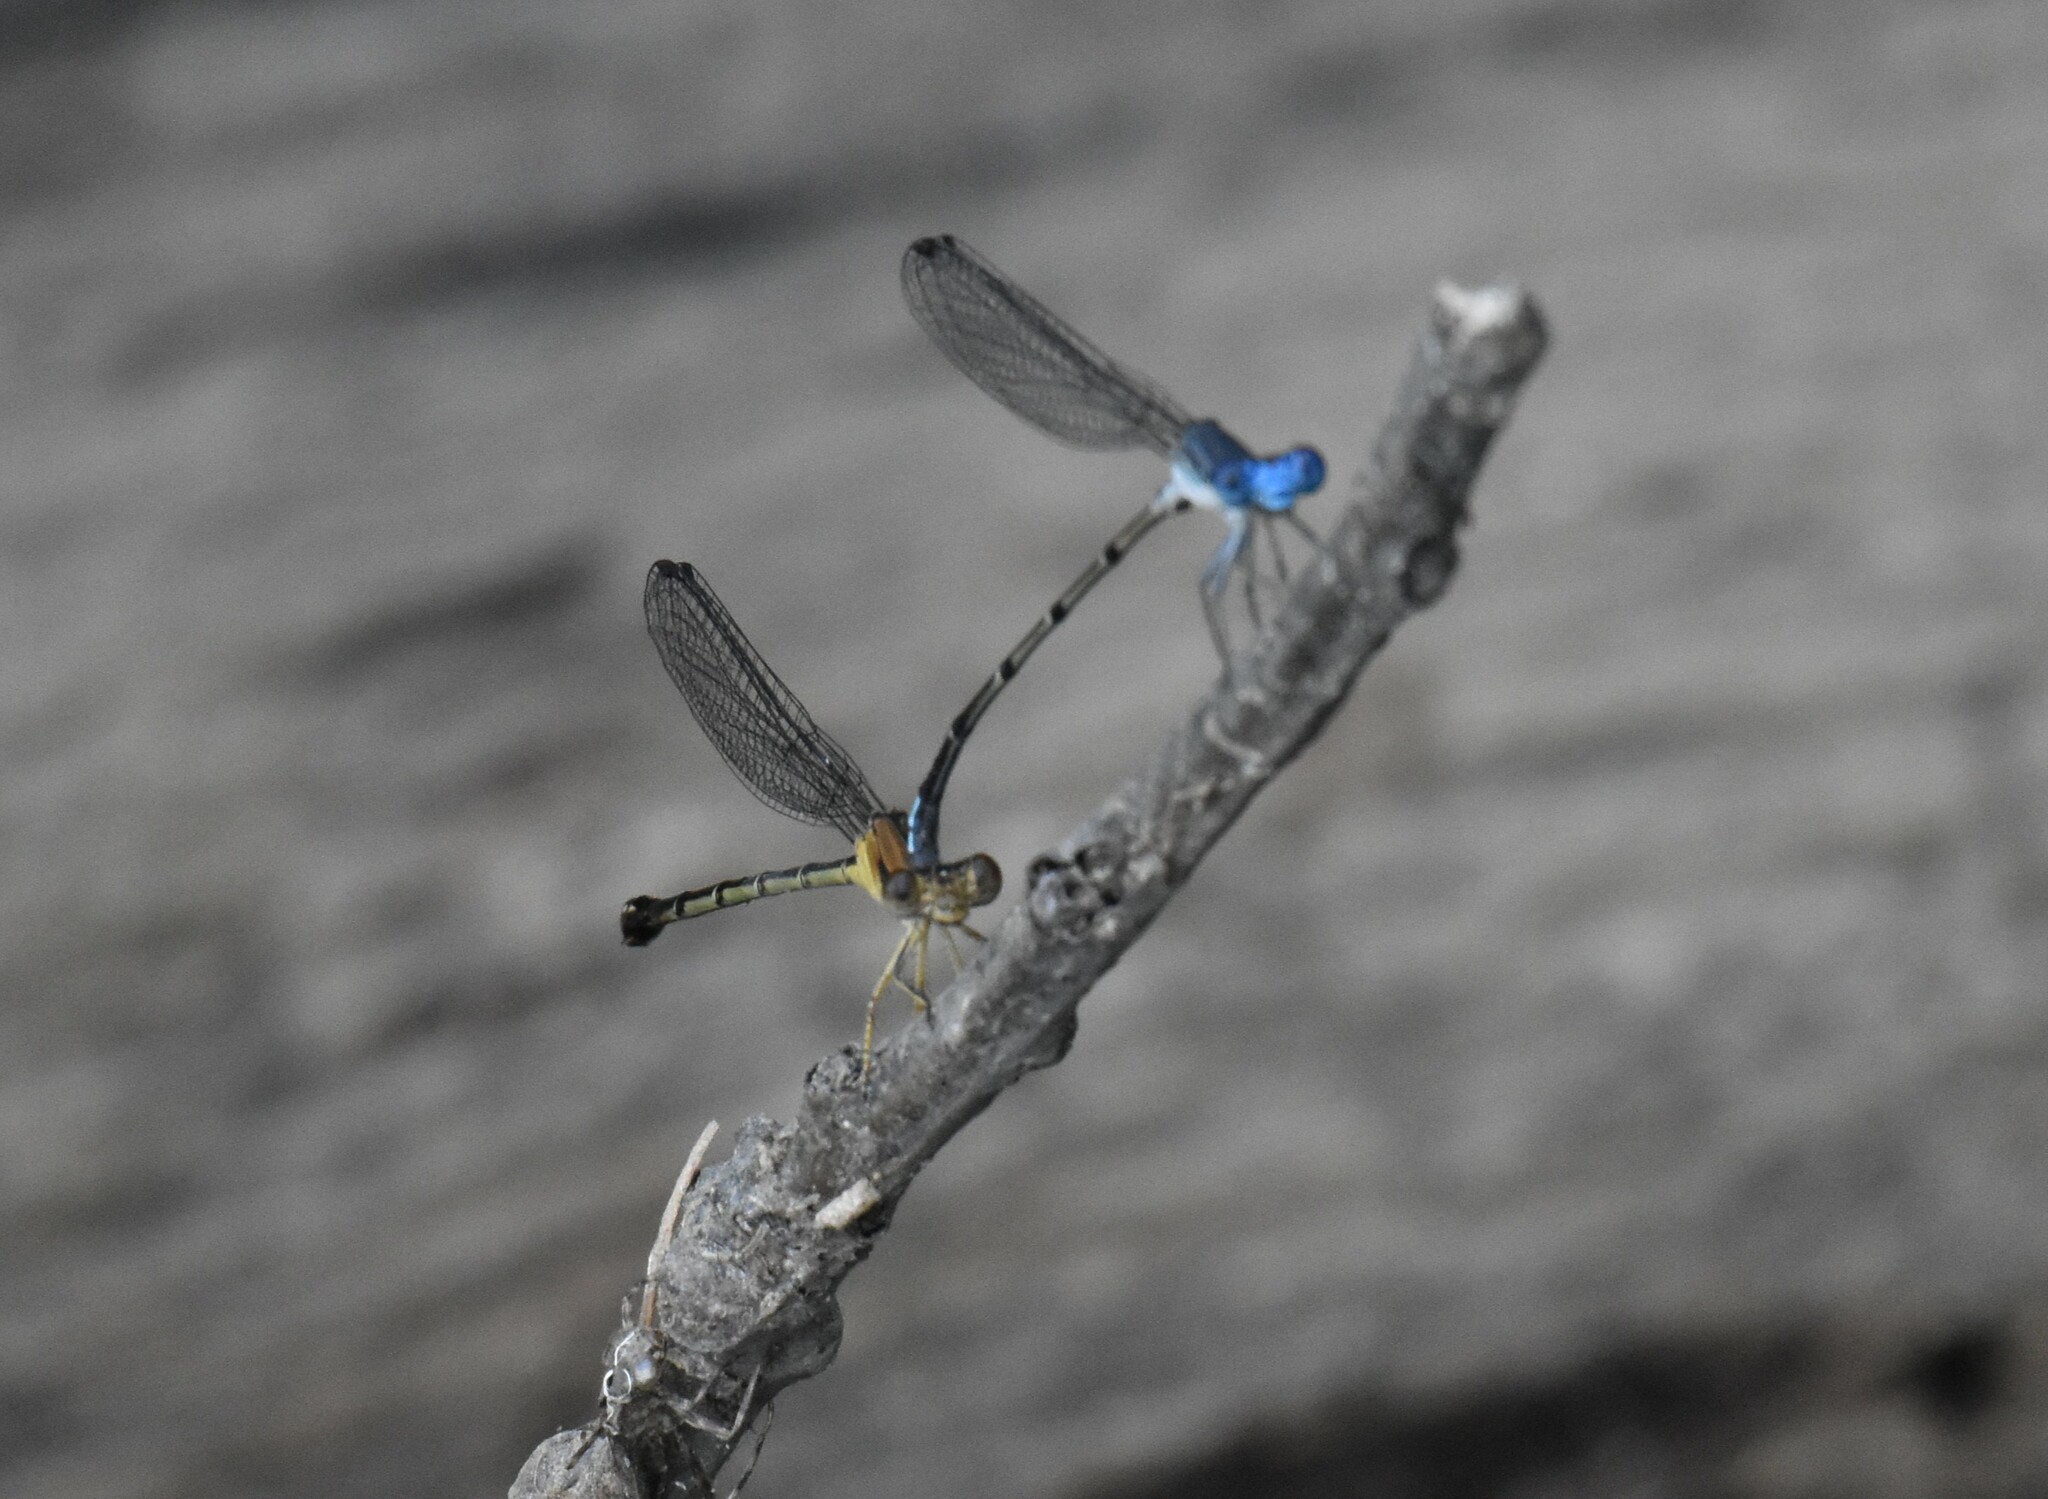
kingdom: Animalia
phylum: Arthropoda
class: Insecta
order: Odonata
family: Coenagrionidae
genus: Argia
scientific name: Argia apicalis
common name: Blue-fronted dancer
